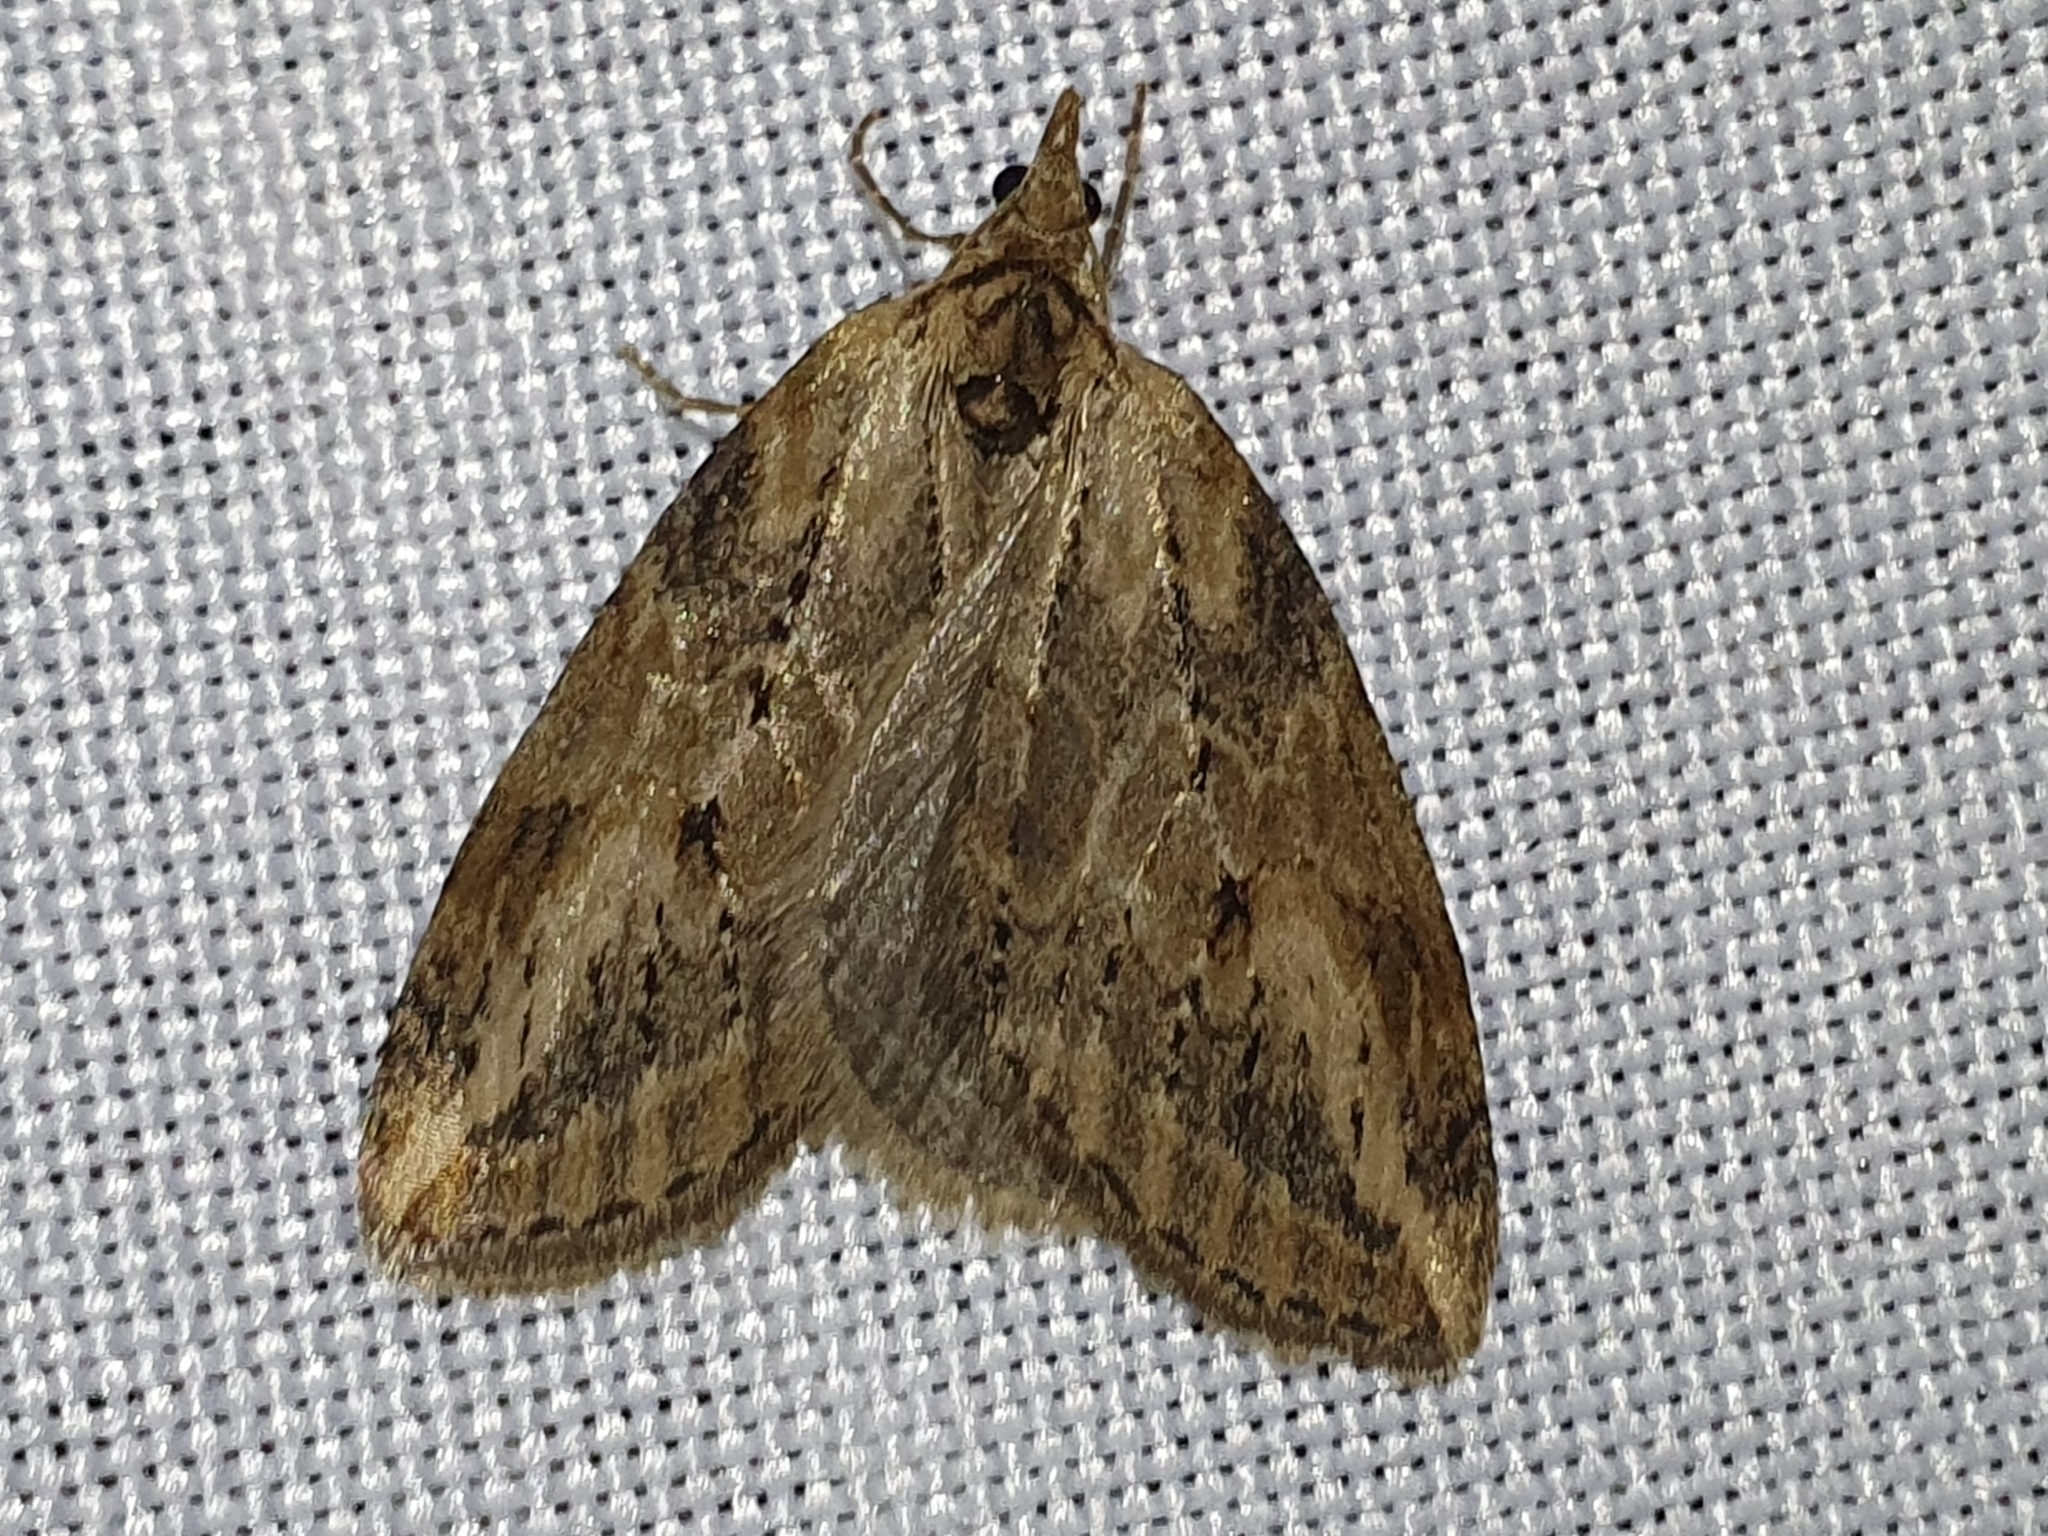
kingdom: Animalia
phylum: Arthropoda
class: Insecta
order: Lepidoptera
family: Geometridae
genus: Chesias
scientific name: Chesias isabella
